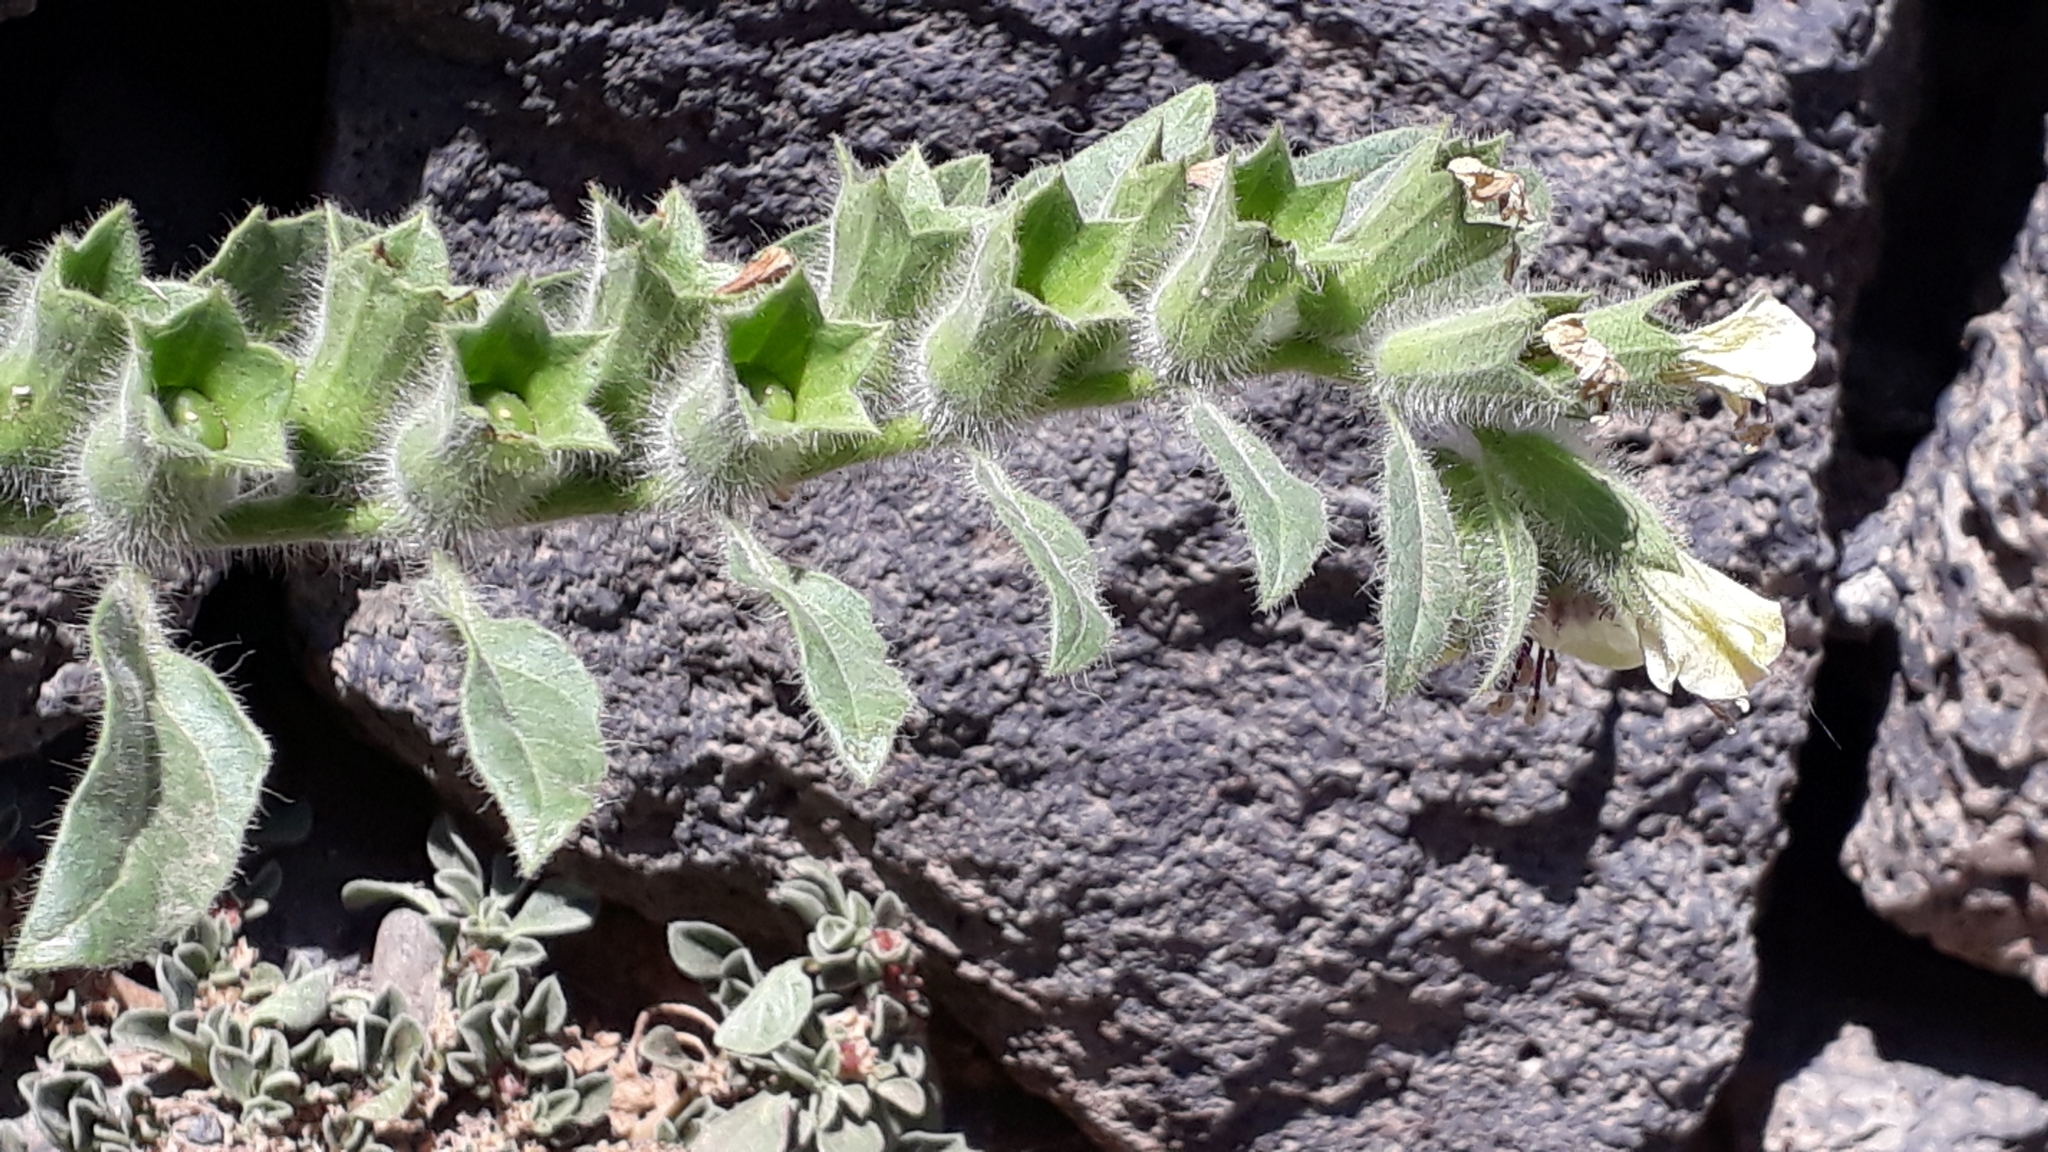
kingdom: Plantae
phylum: Tracheophyta
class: Magnoliopsida
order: Solanales
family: Solanaceae
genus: Hyoscyamus
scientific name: Hyoscyamus albus
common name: White henbane
